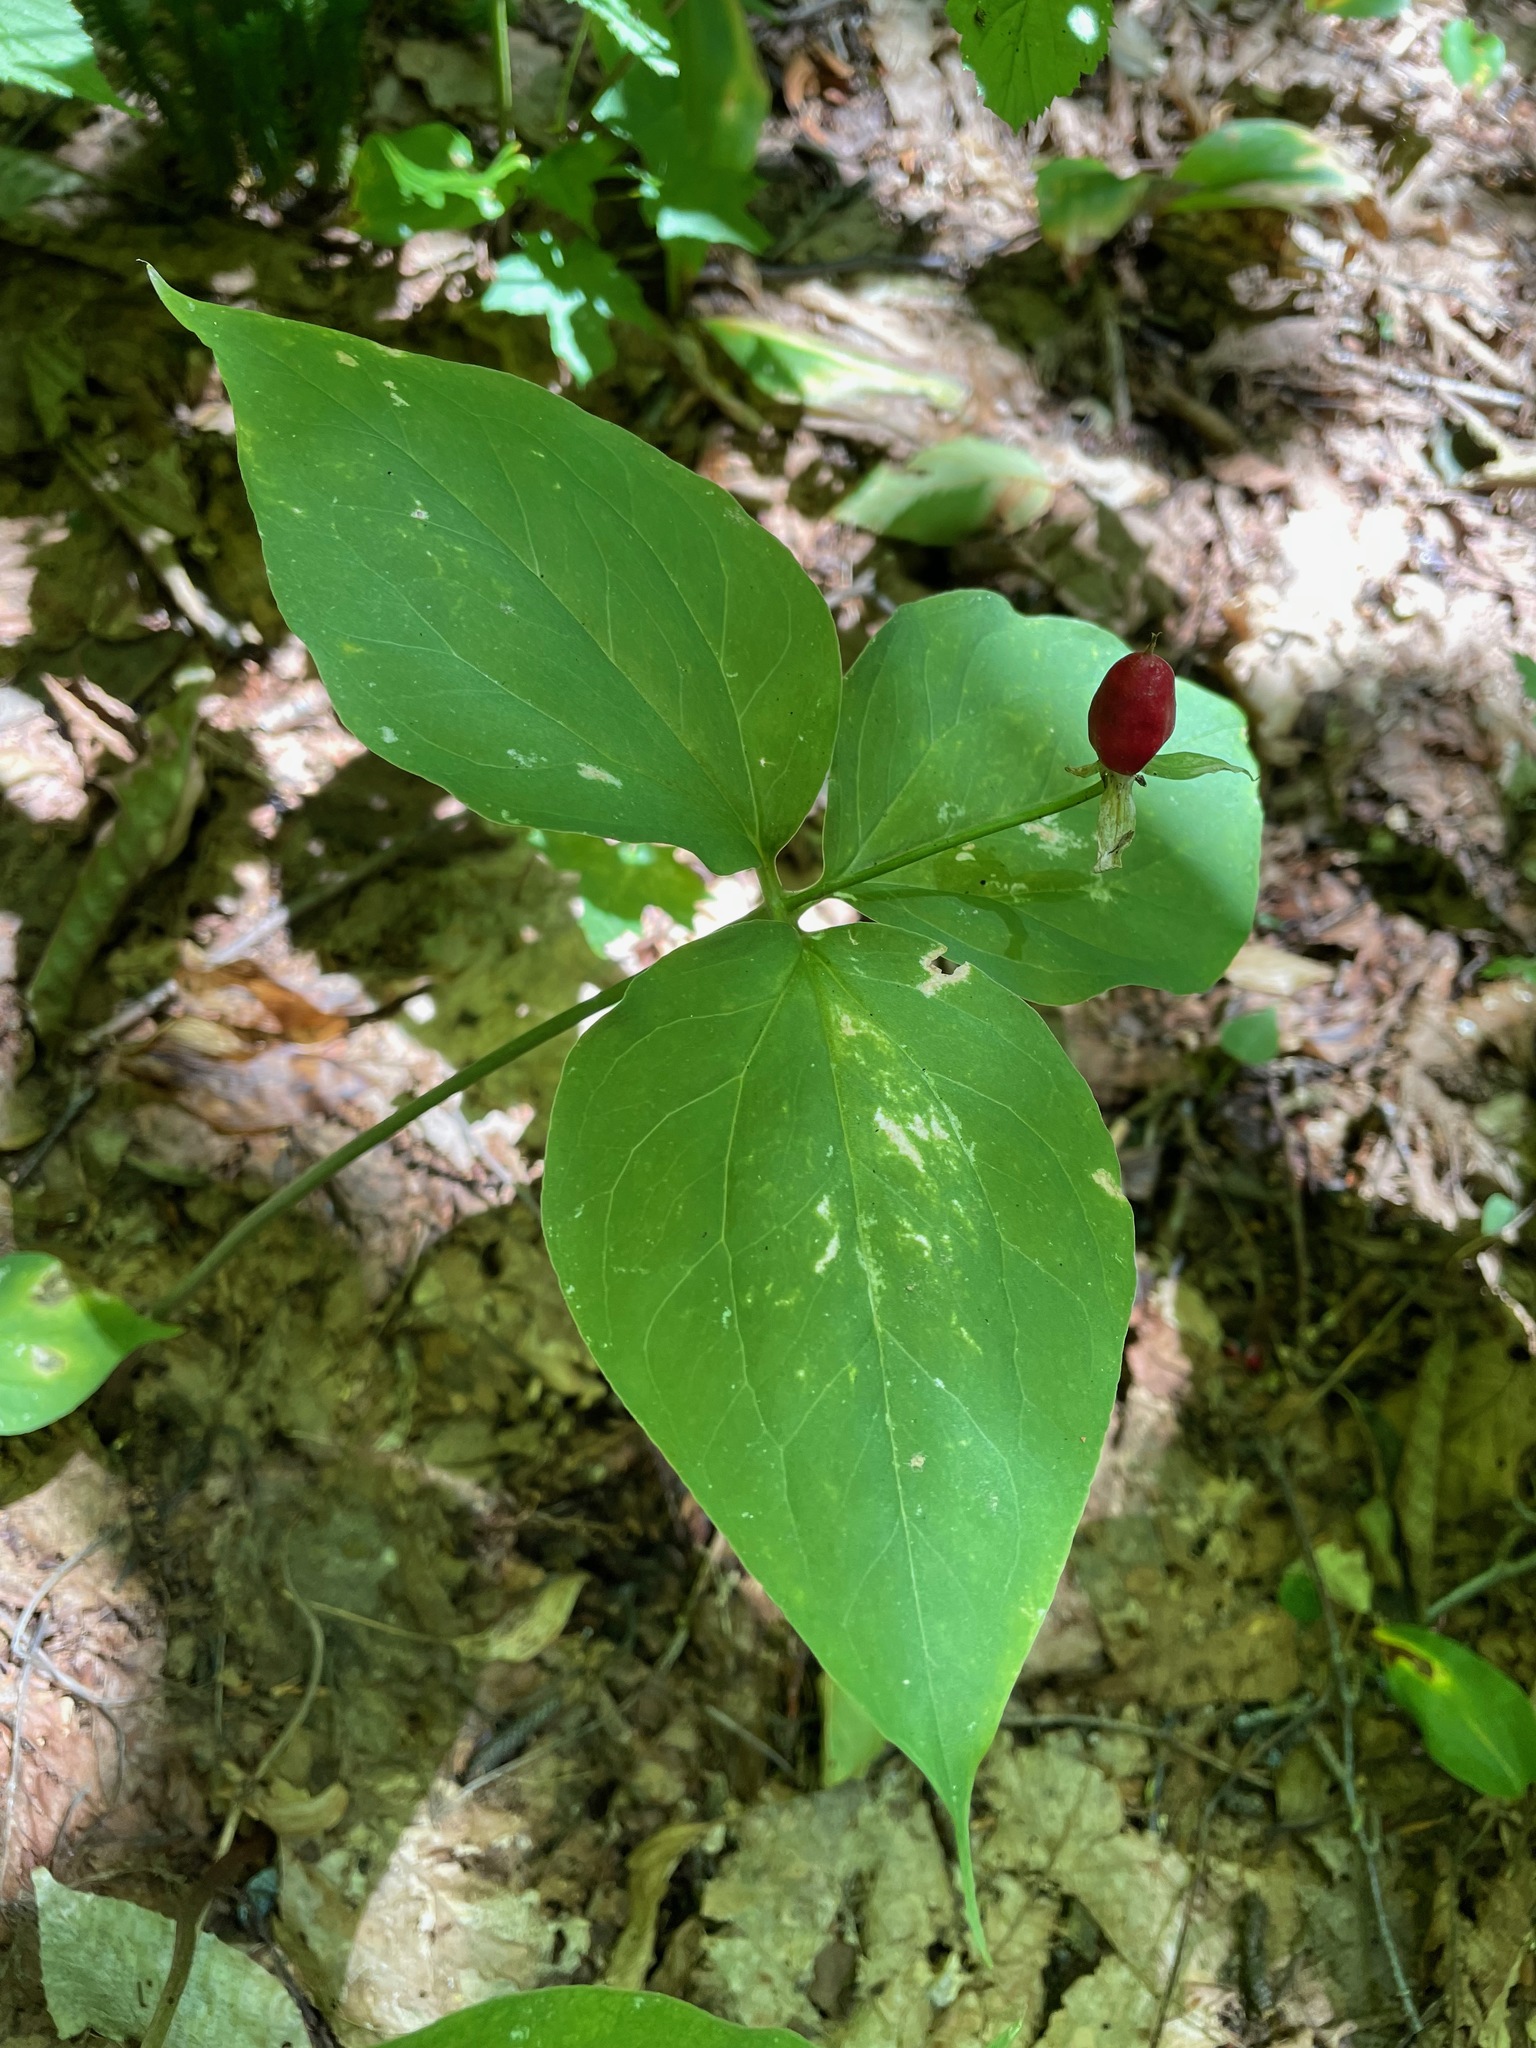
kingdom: Plantae
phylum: Tracheophyta
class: Liliopsida
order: Liliales
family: Melanthiaceae
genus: Trillium
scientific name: Trillium undulatum
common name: Paint trillium
